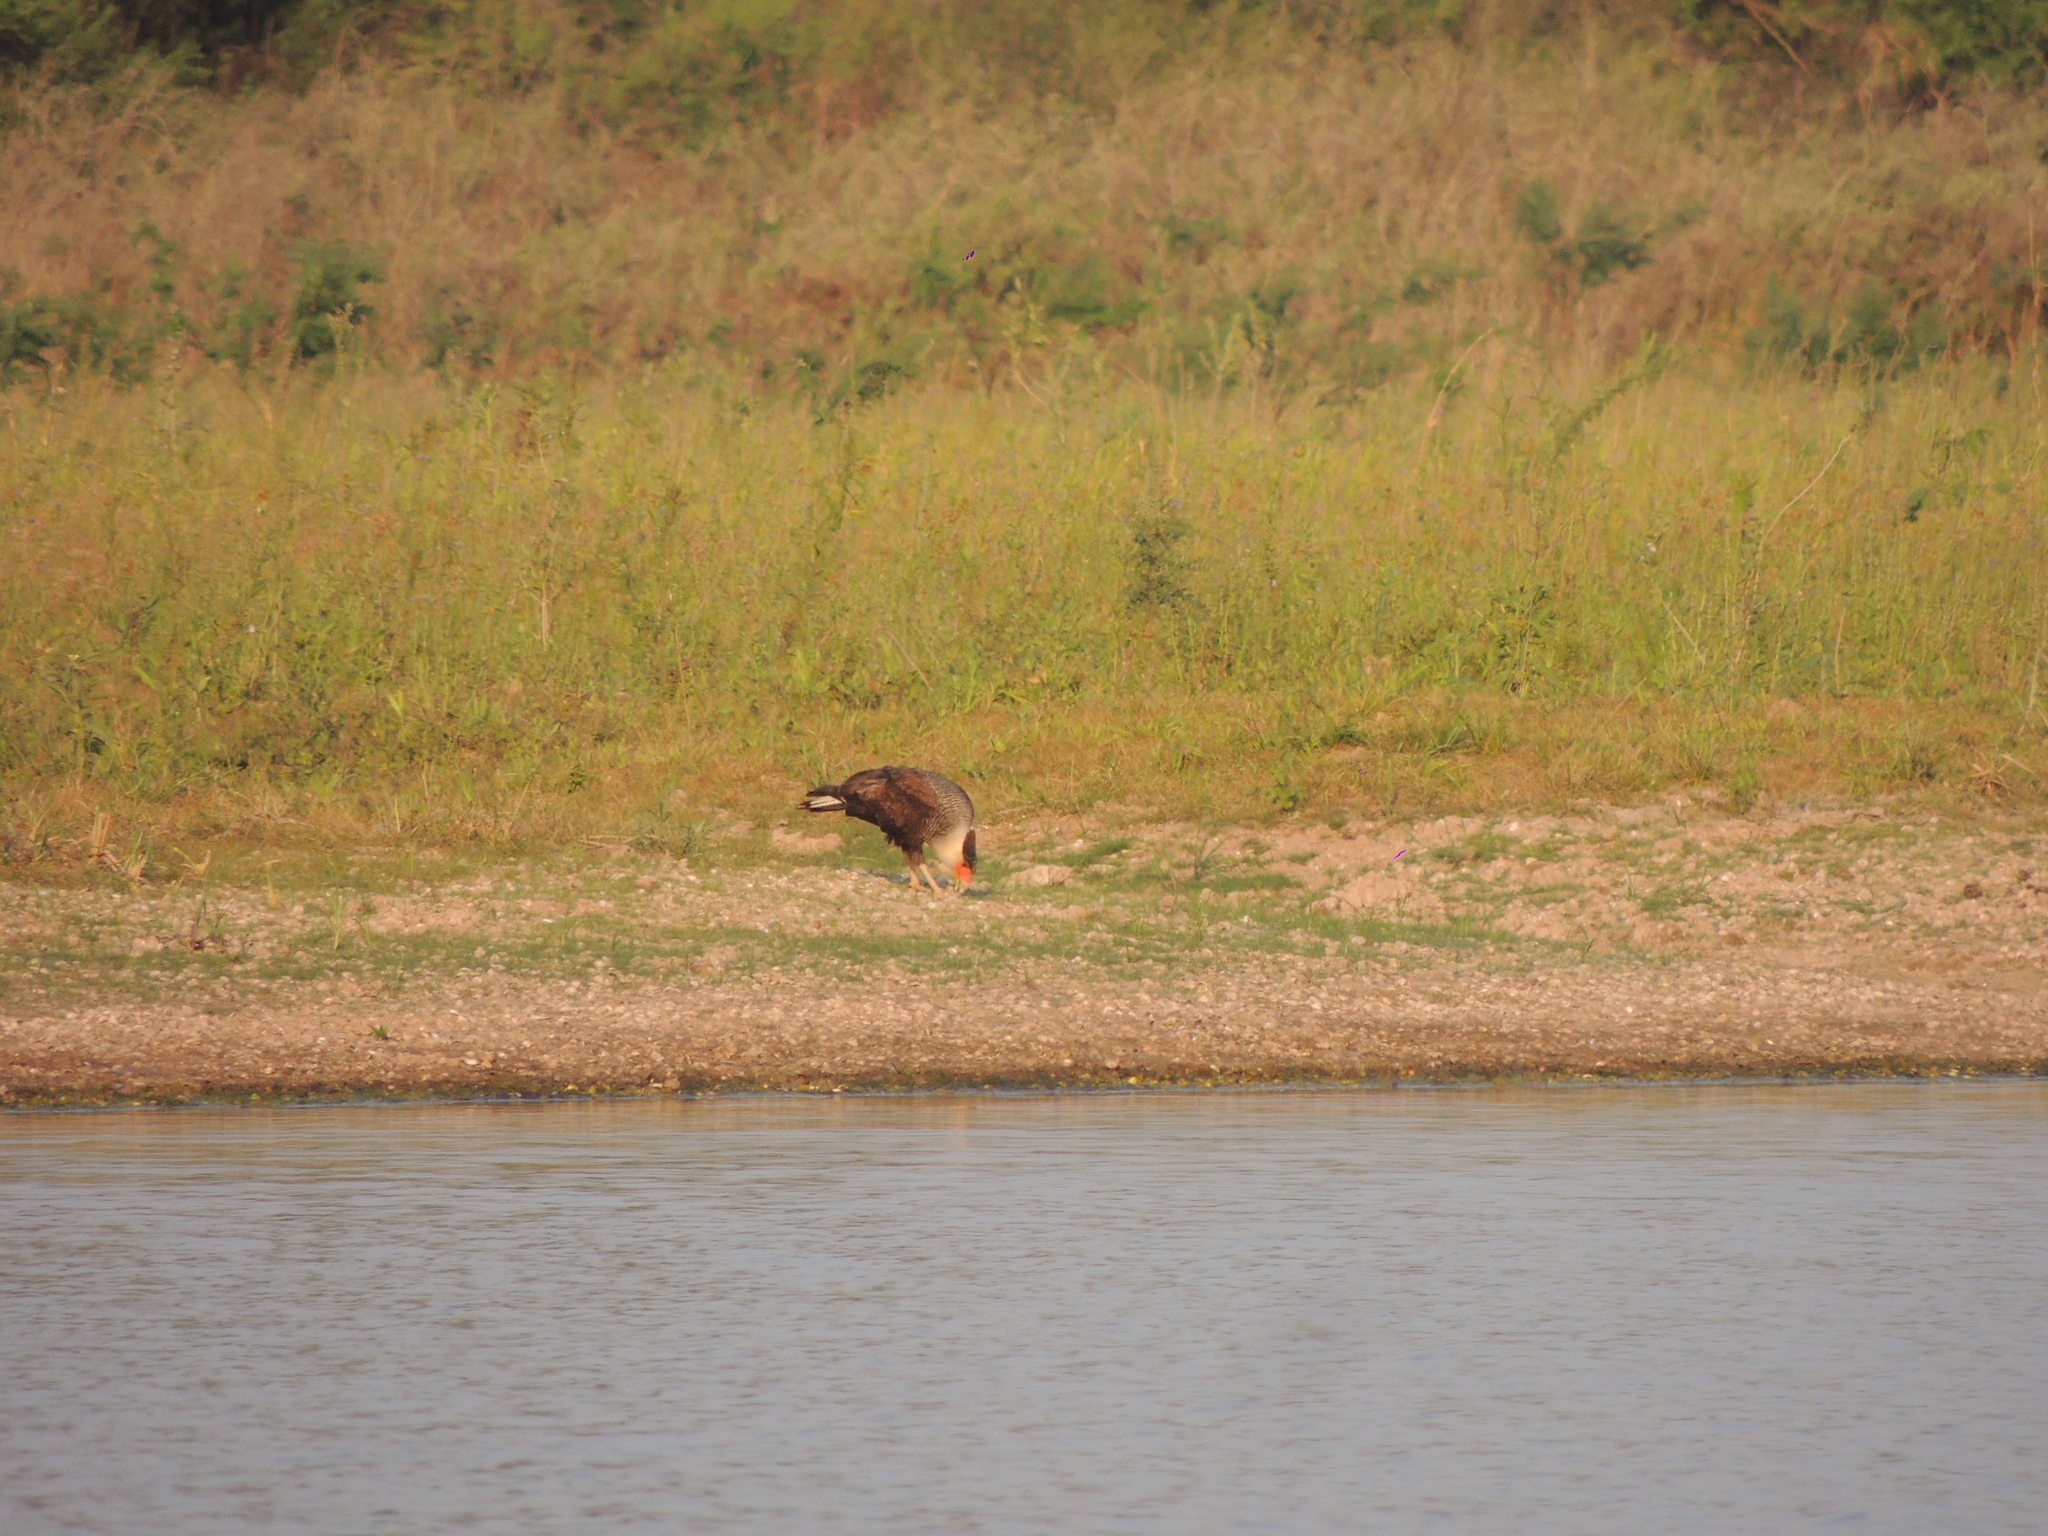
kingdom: Animalia
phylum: Chordata
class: Aves
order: Falconiformes
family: Falconidae
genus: Caracara
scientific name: Caracara plancus
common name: Southern caracara
